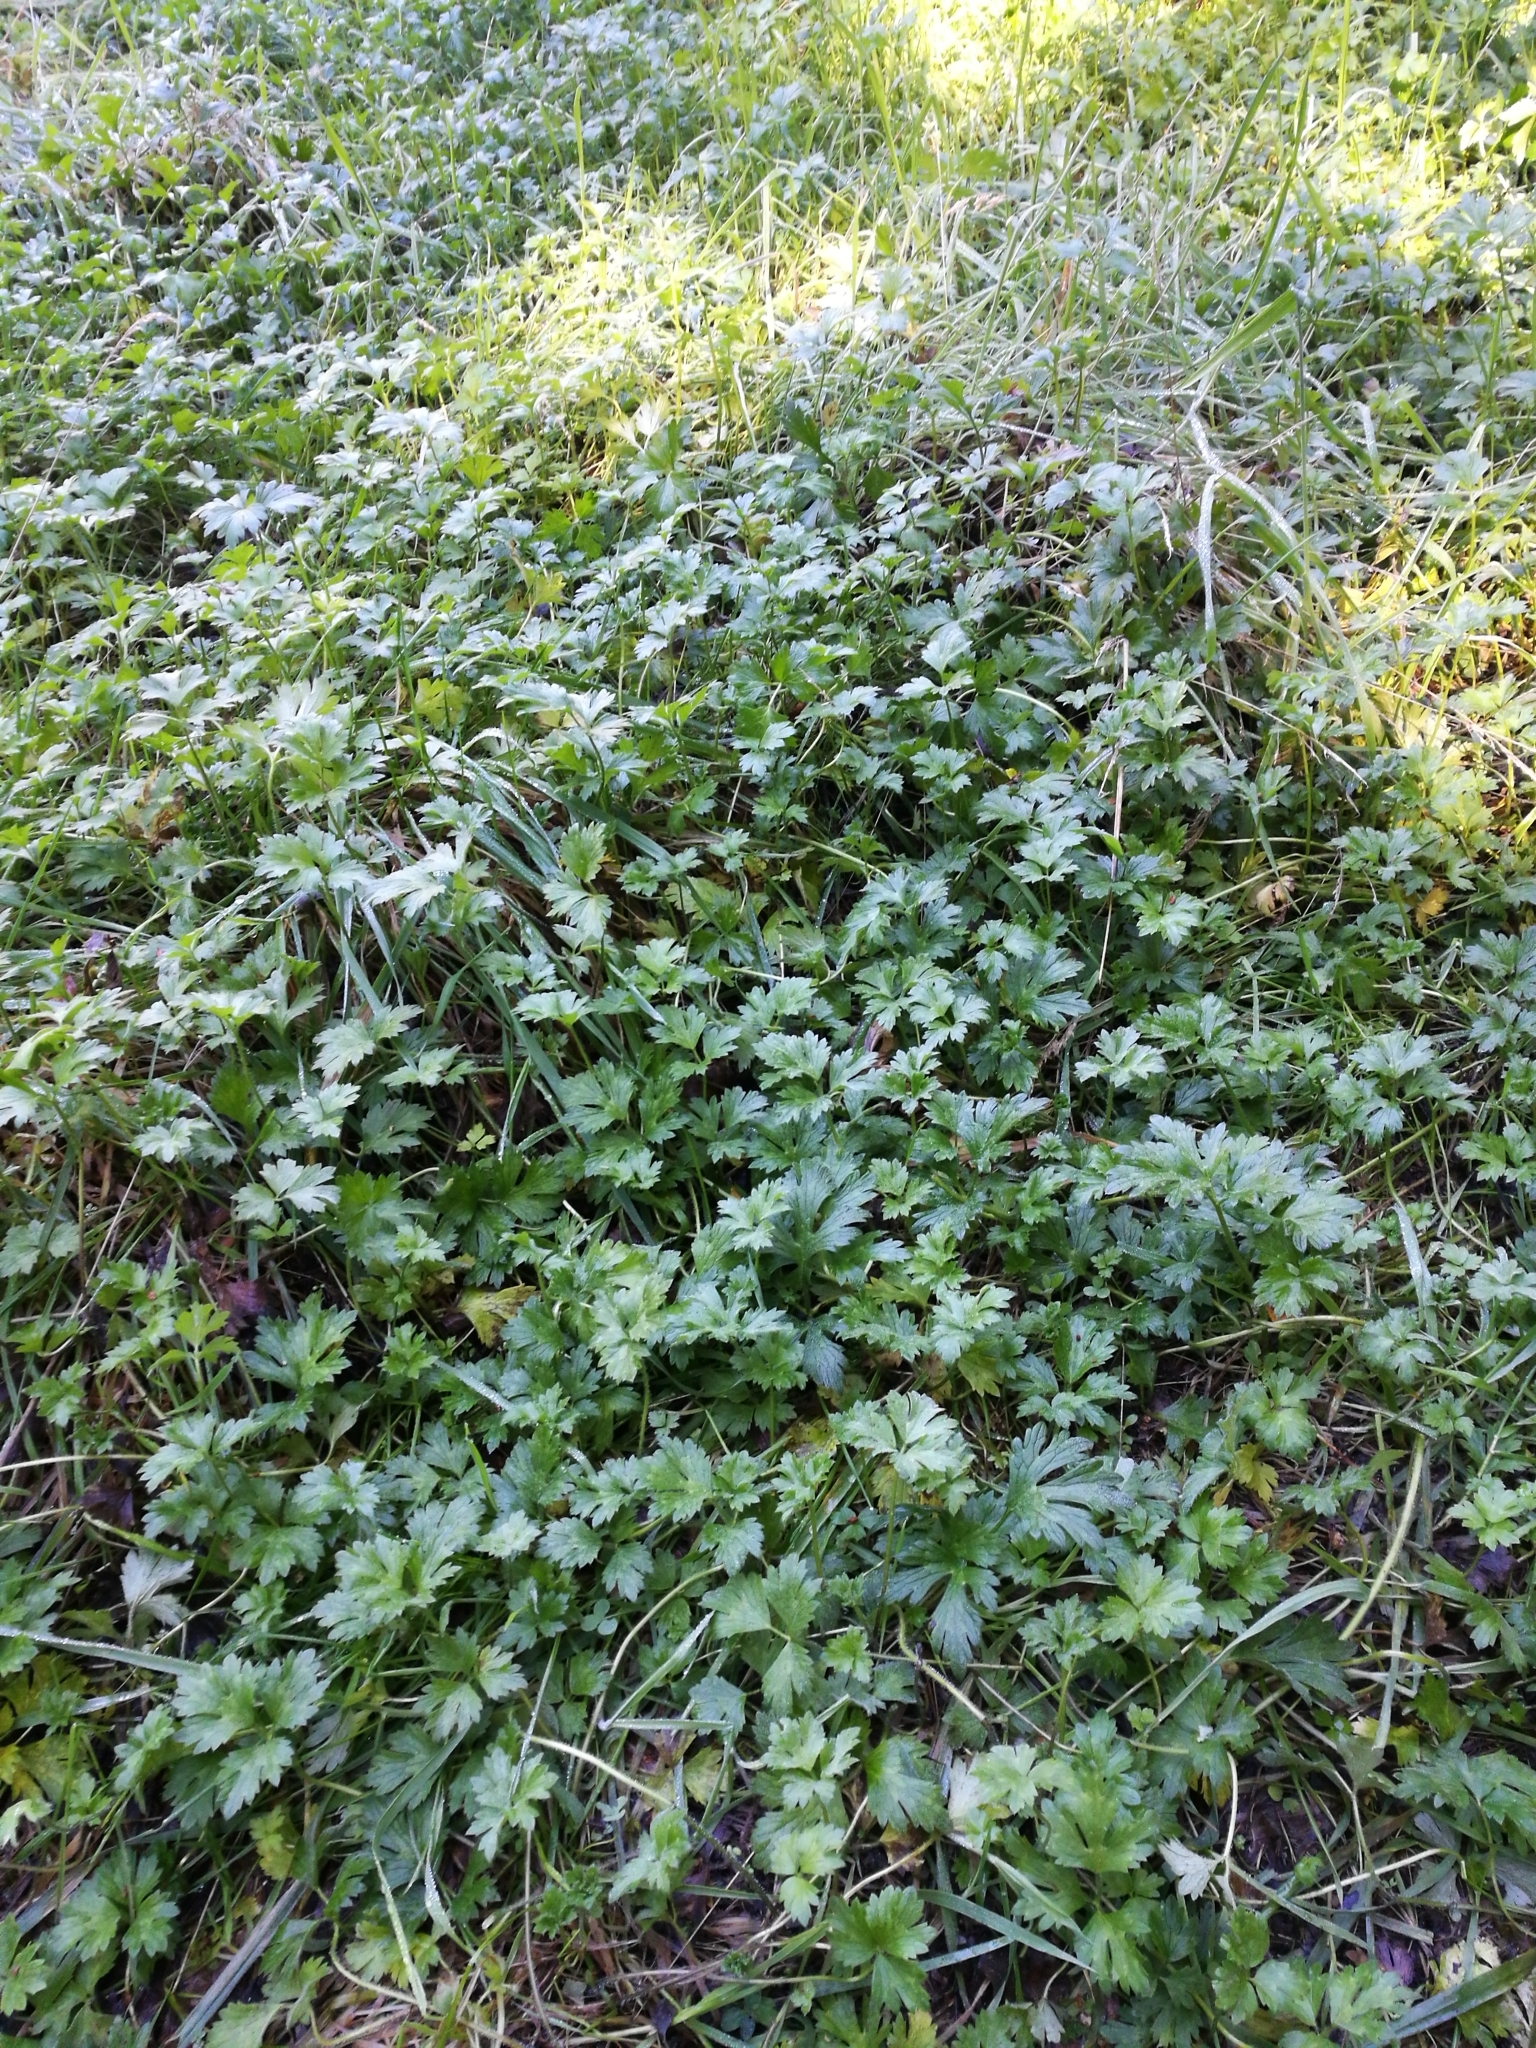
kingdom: Plantae
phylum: Tracheophyta
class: Magnoliopsida
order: Ranunculales
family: Ranunculaceae
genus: Ranunculus
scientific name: Ranunculus repens
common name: Creeping buttercup
